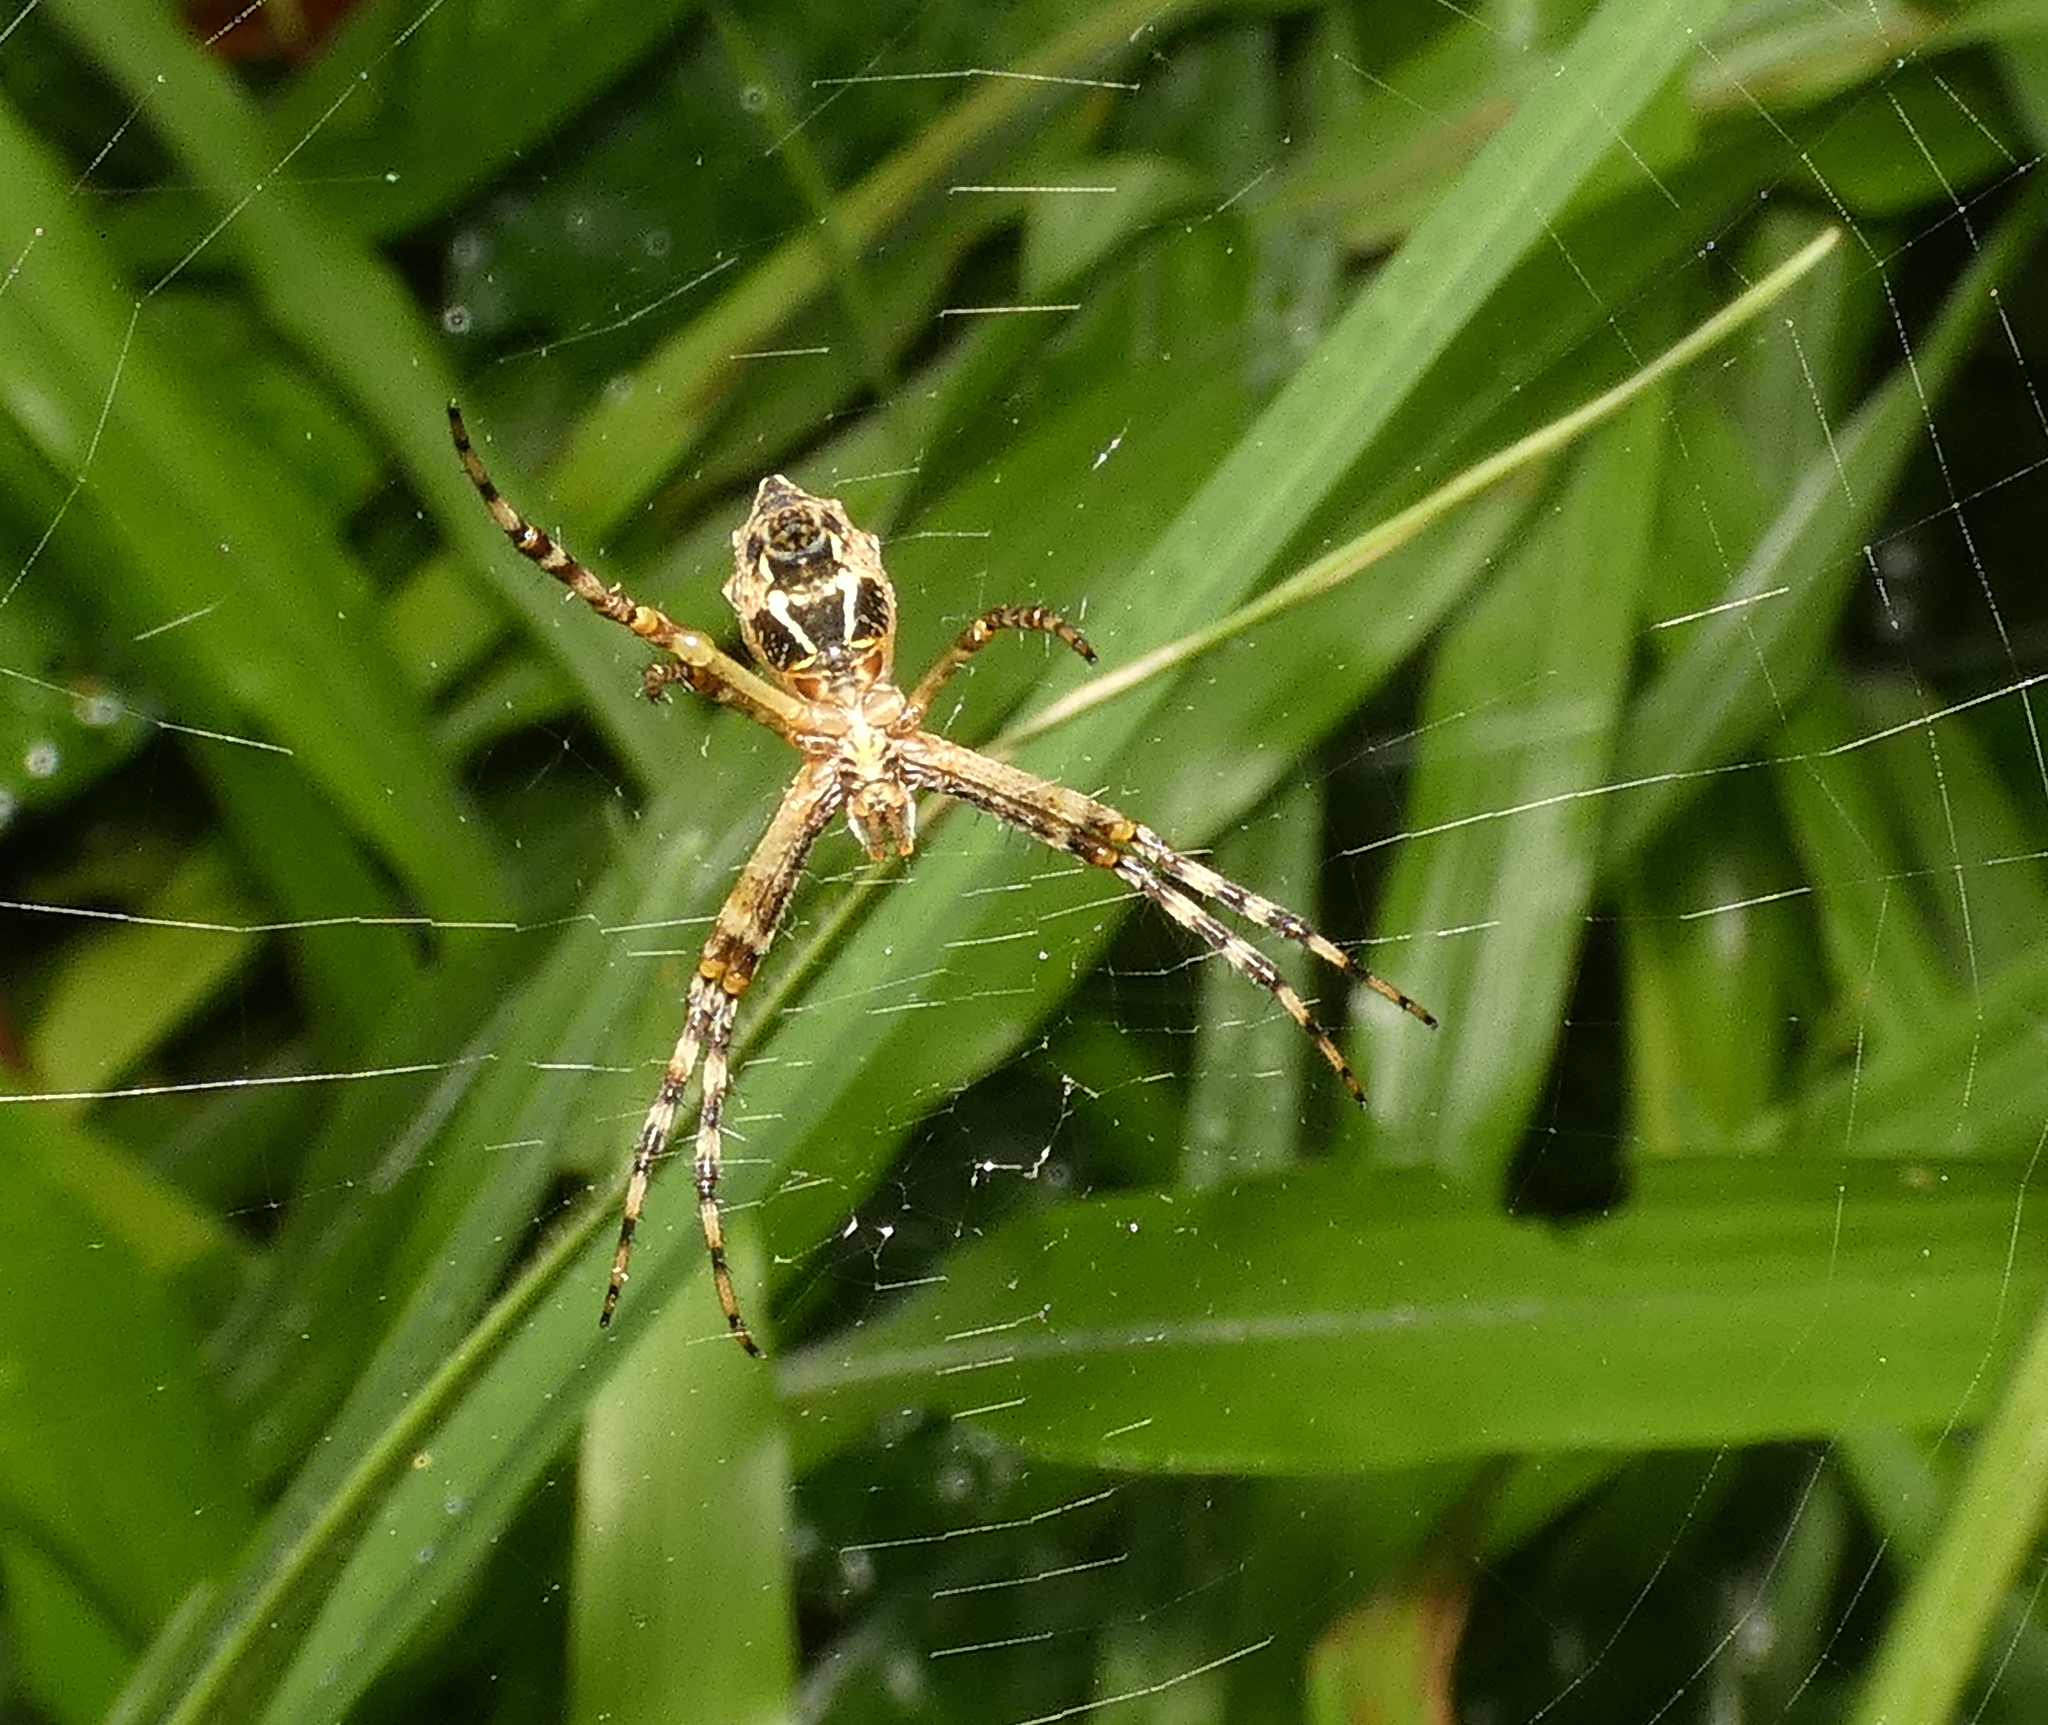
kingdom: Animalia
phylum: Arthropoda
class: Arachnida
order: Araneae
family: Araneidae
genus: Argiope
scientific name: Argiope argentata
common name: Orb weavers
